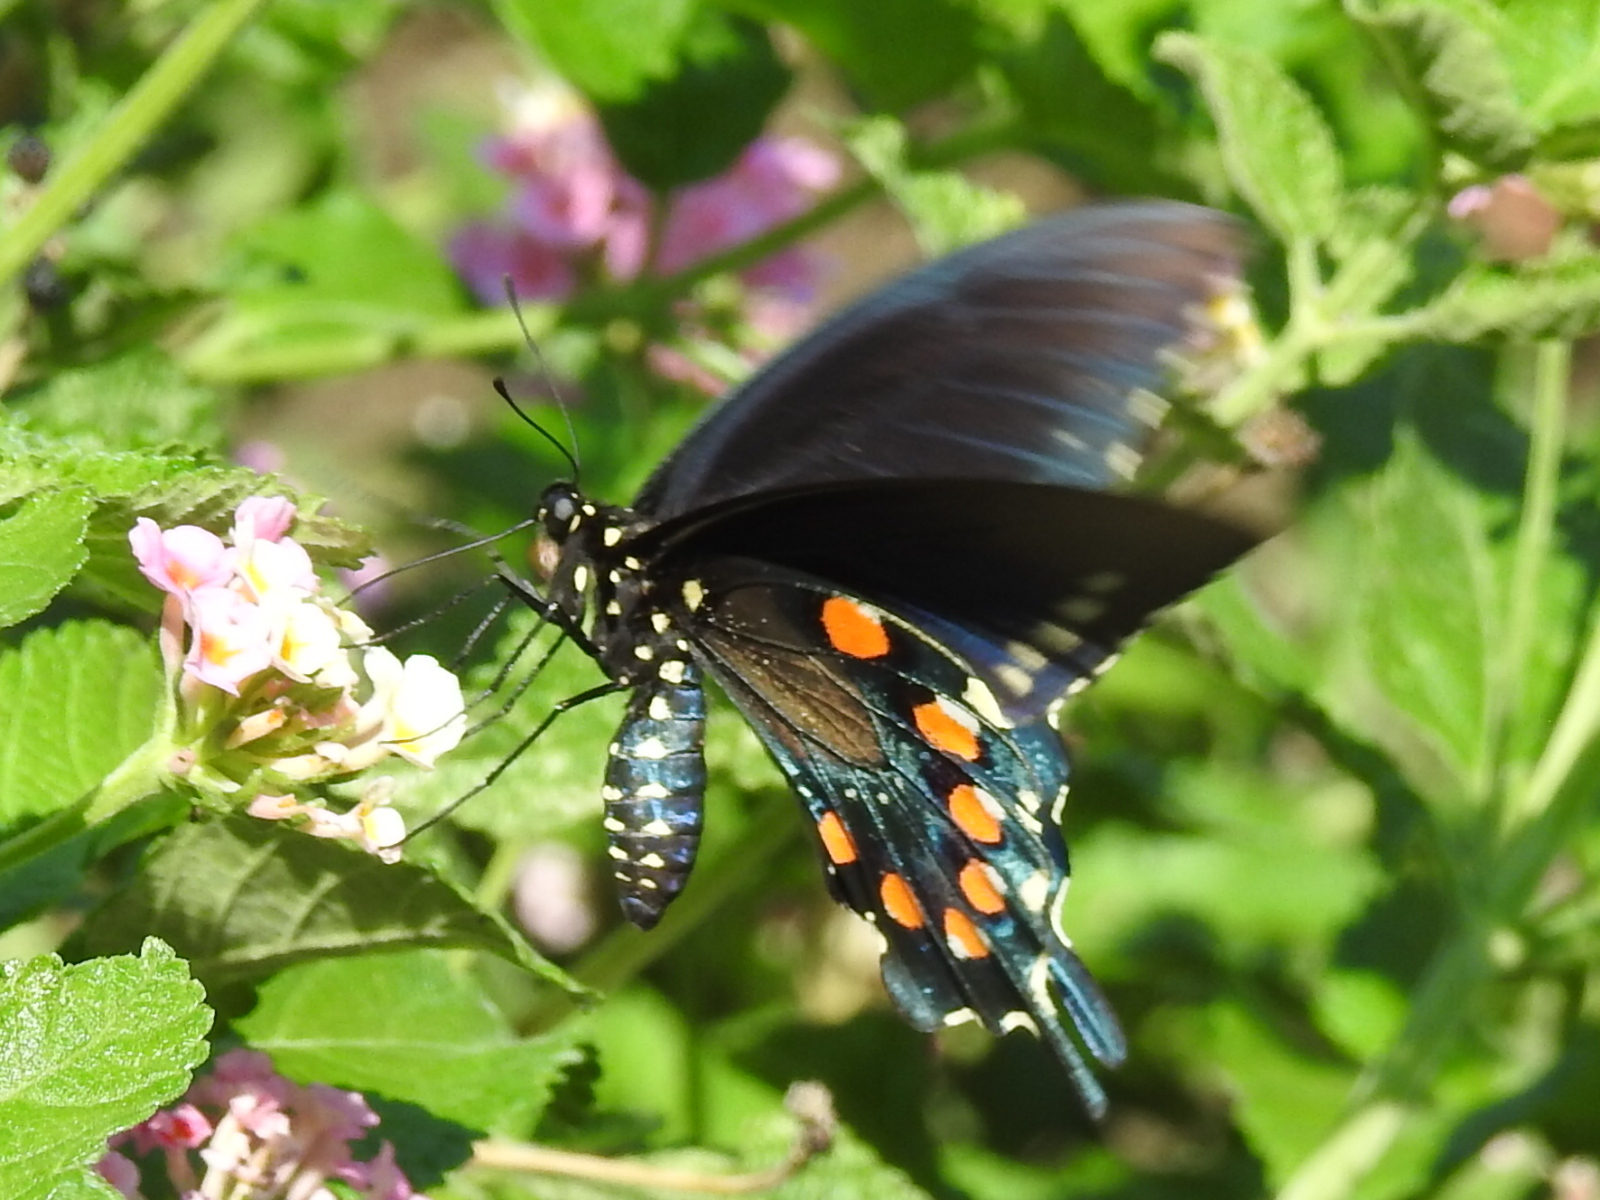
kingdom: Animalia
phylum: Arthropoda
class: Insecta
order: Lepidoptera
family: Papilionidae
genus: Battus
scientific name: Battus philenor
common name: Pipevine swallowtail
